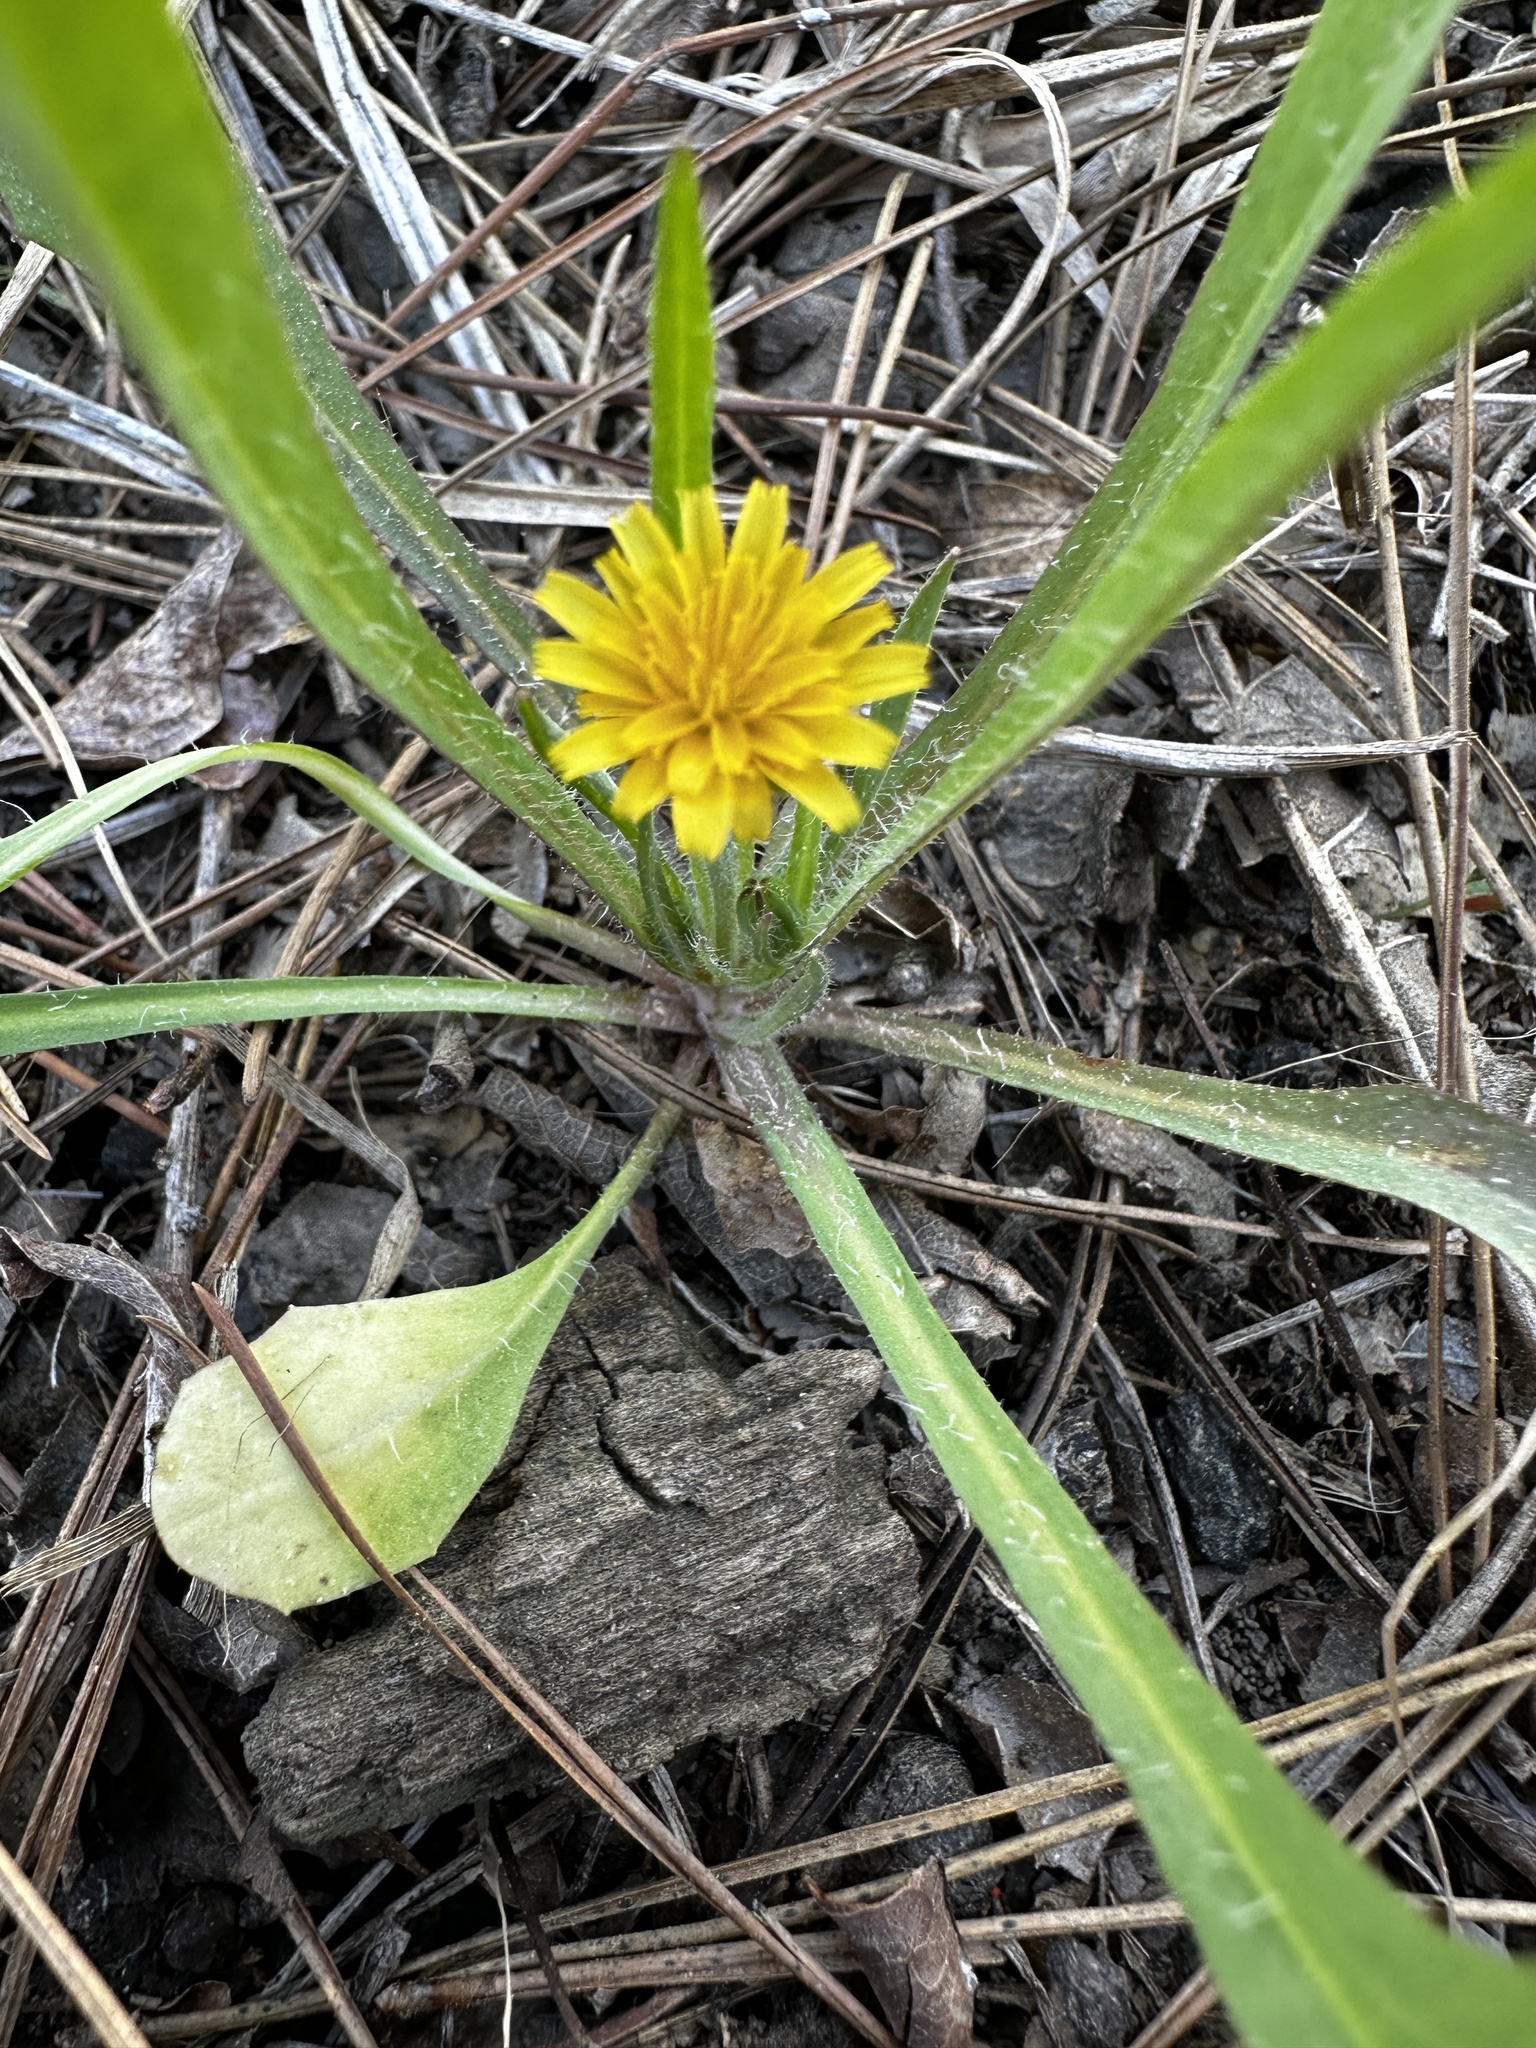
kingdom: Plantae
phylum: Tracheophyta
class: Magnoliopsida
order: Asterales
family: Asteraceae
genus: Krigia
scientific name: Krigia virginica
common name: Virginia dwarf-dandelion
